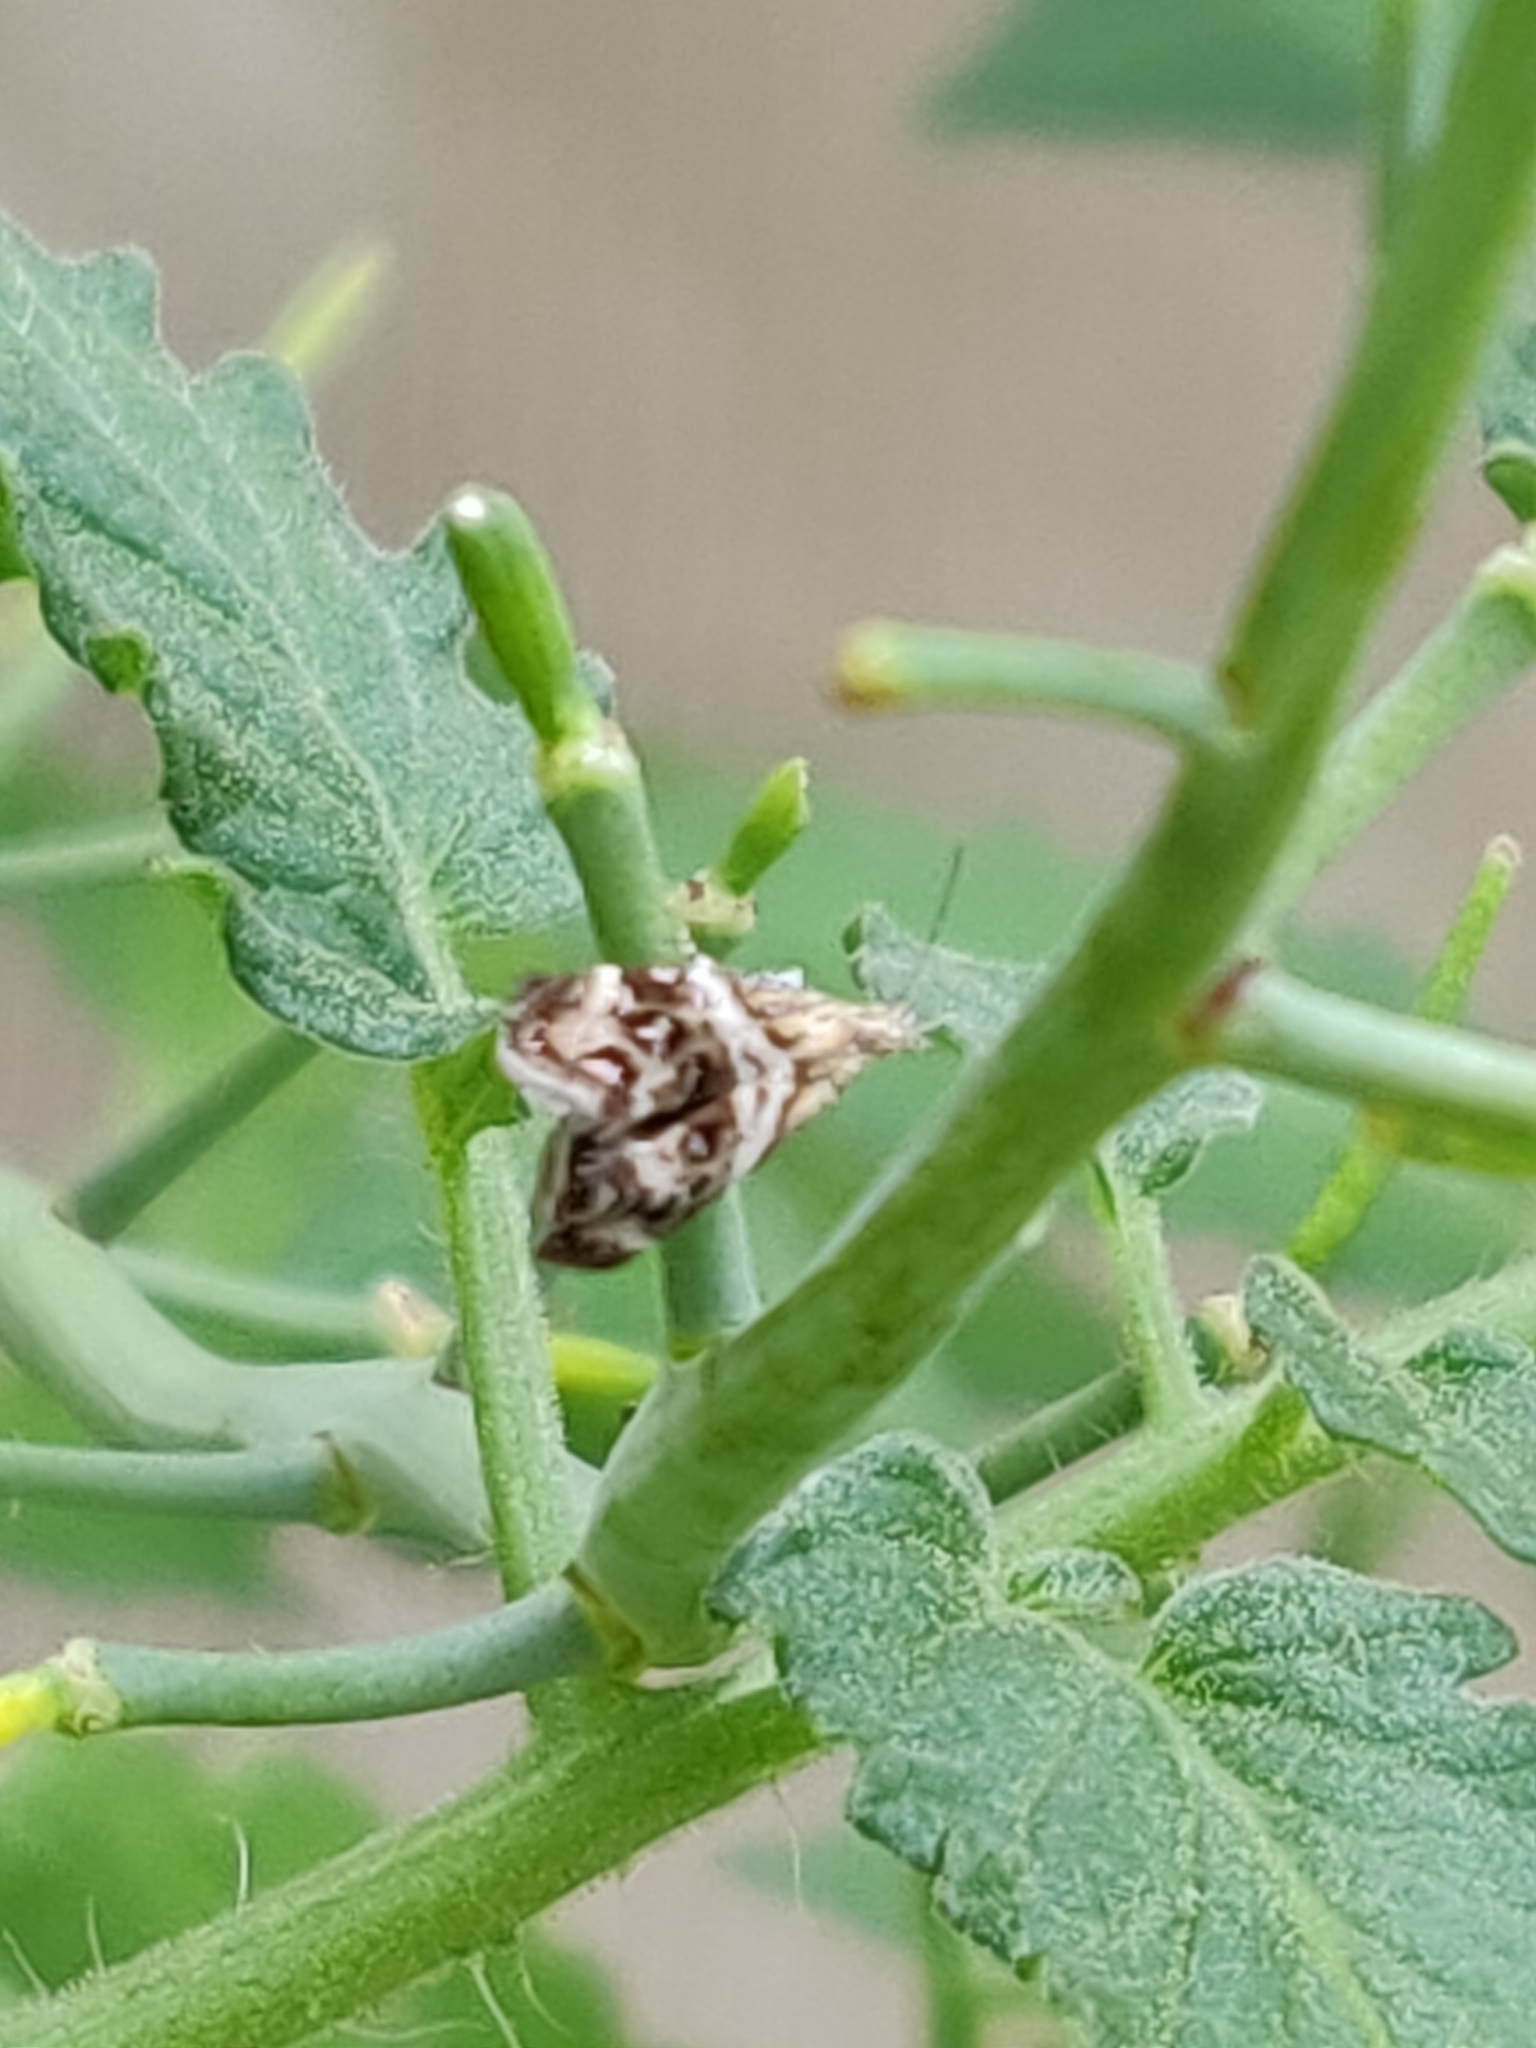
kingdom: Animalia
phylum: Arthropoda
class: Insecta
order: Lepidoptera
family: Choreutidae
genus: Tebenna
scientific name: Tebenna micalis
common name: Vagrant twitcher
